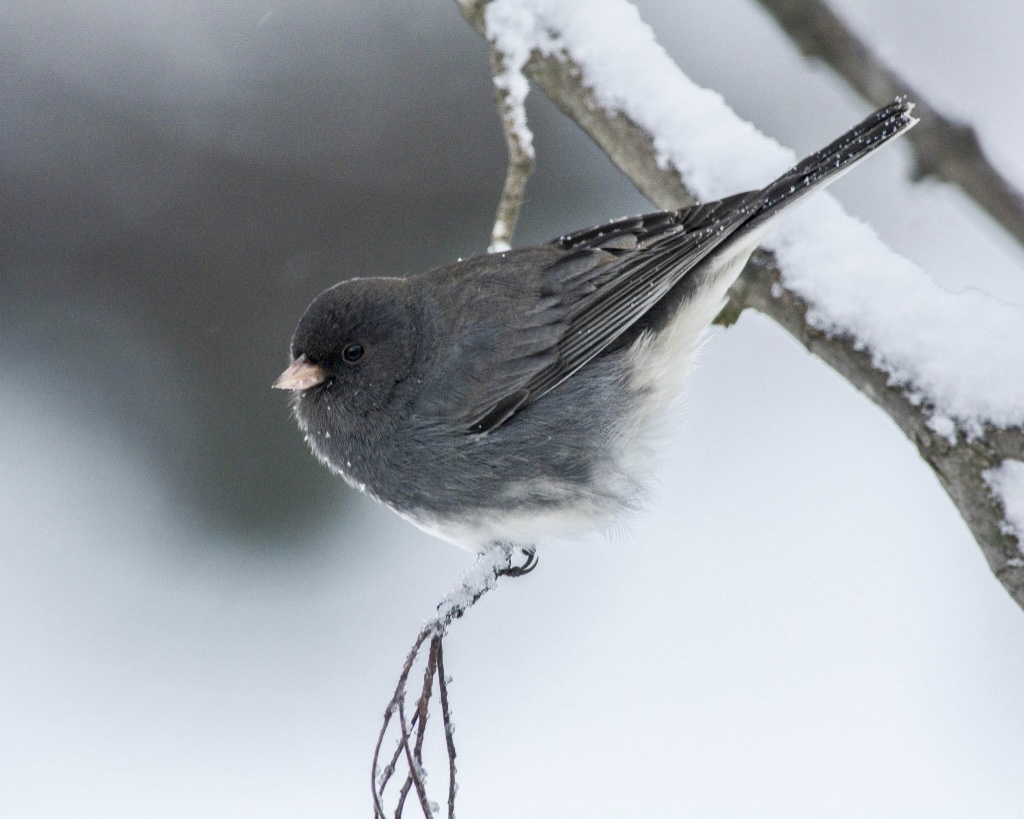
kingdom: Animalia
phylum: Chordata
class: Aves
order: Passeriformes
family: Passerellidae
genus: Junco
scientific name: Junco hyemalis
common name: Dark-eyed junco
